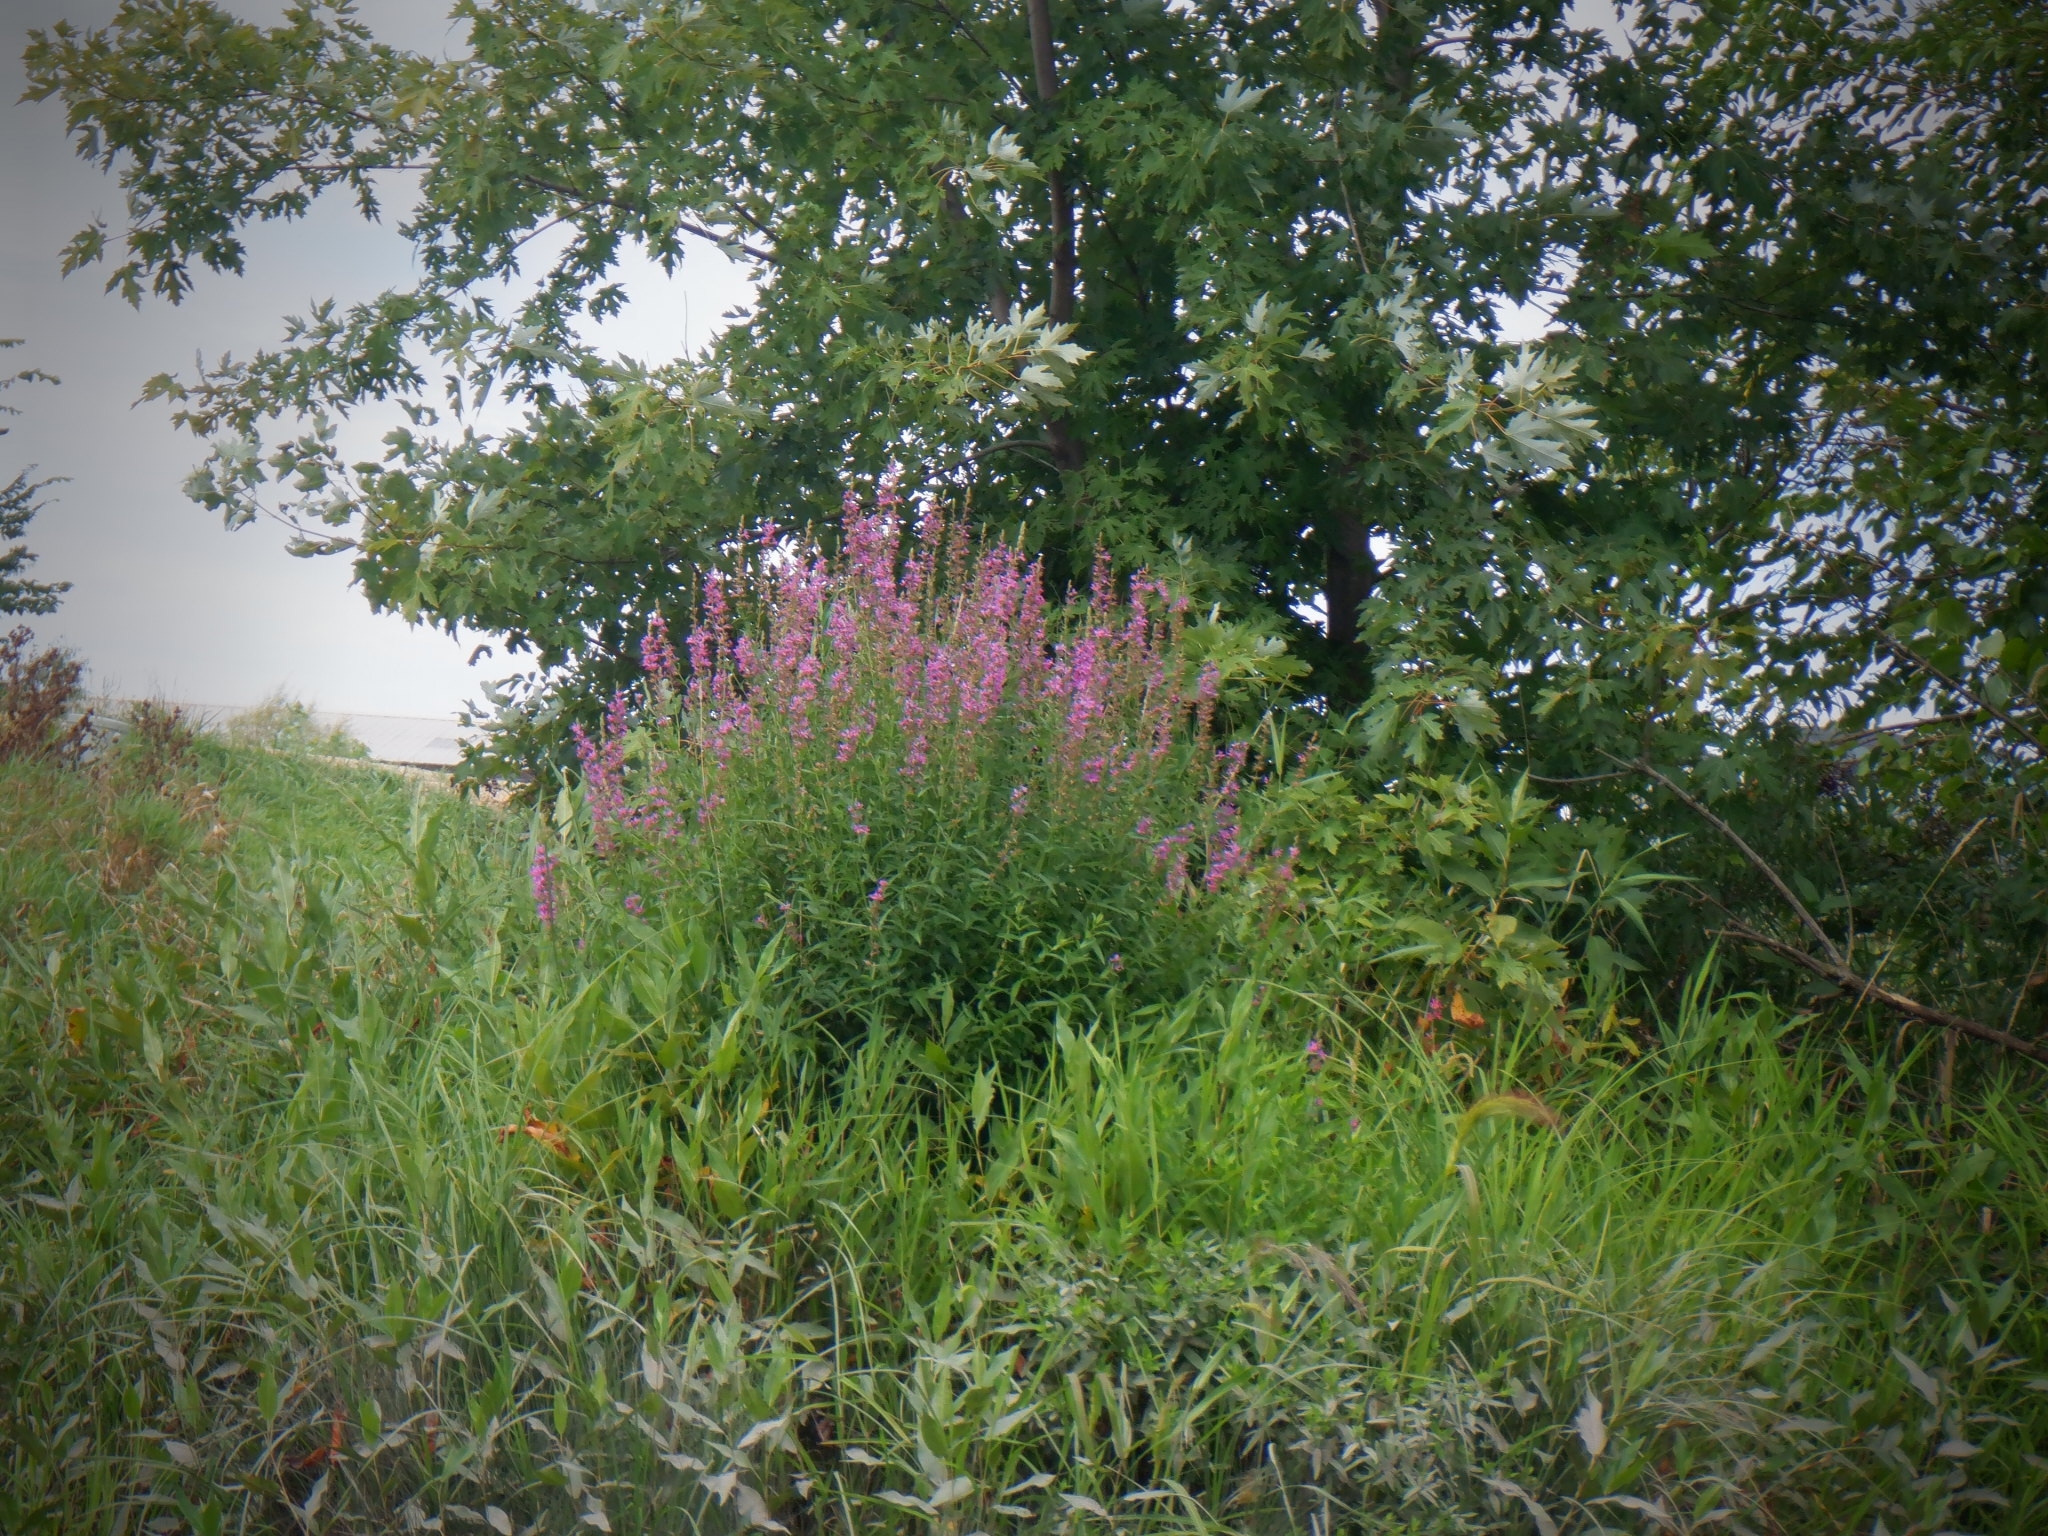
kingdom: Plantae
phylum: Tracheophyta
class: Magnoliopsida
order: Myrtales
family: Lythraceae
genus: Lythrum
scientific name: Lythrum salicaria
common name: Purple loosestrife
